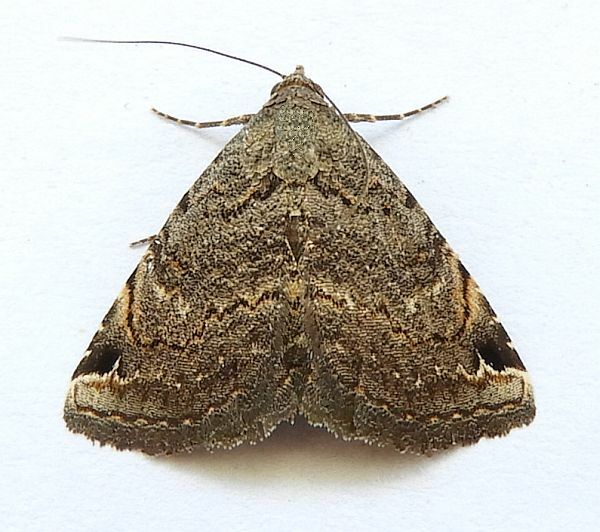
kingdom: Animalia
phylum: Arthropoda
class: Insecta
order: Lepidoptera
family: Erebidae
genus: Toxonprucha
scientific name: Toxonprucha crudelis
